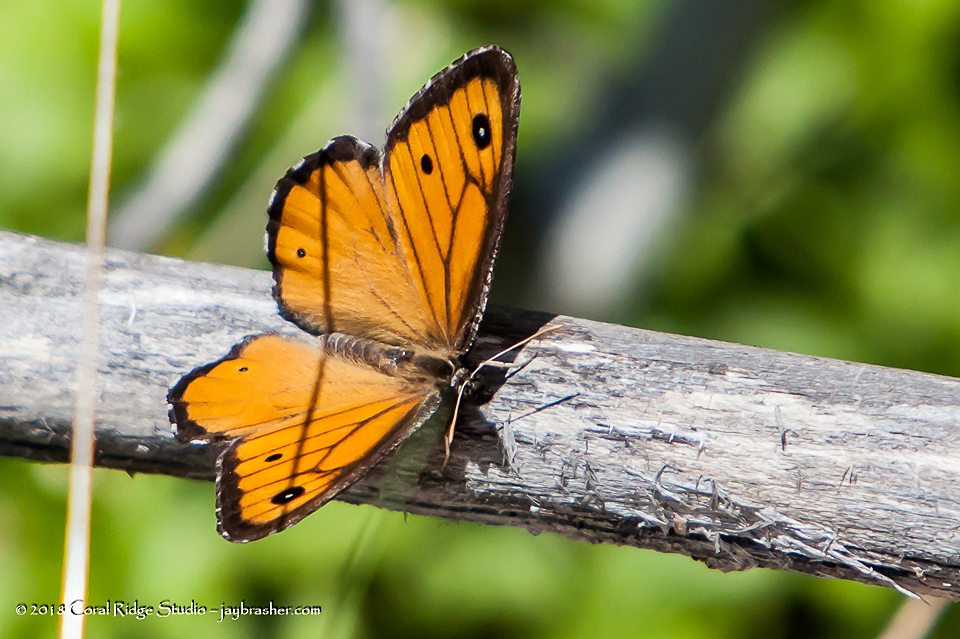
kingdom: Animalia
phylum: Arthropoda
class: Insecta
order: Lepidoptera
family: Nymphalidae
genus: Oeneis
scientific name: Oeneis macounii
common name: Macoun's arctic
